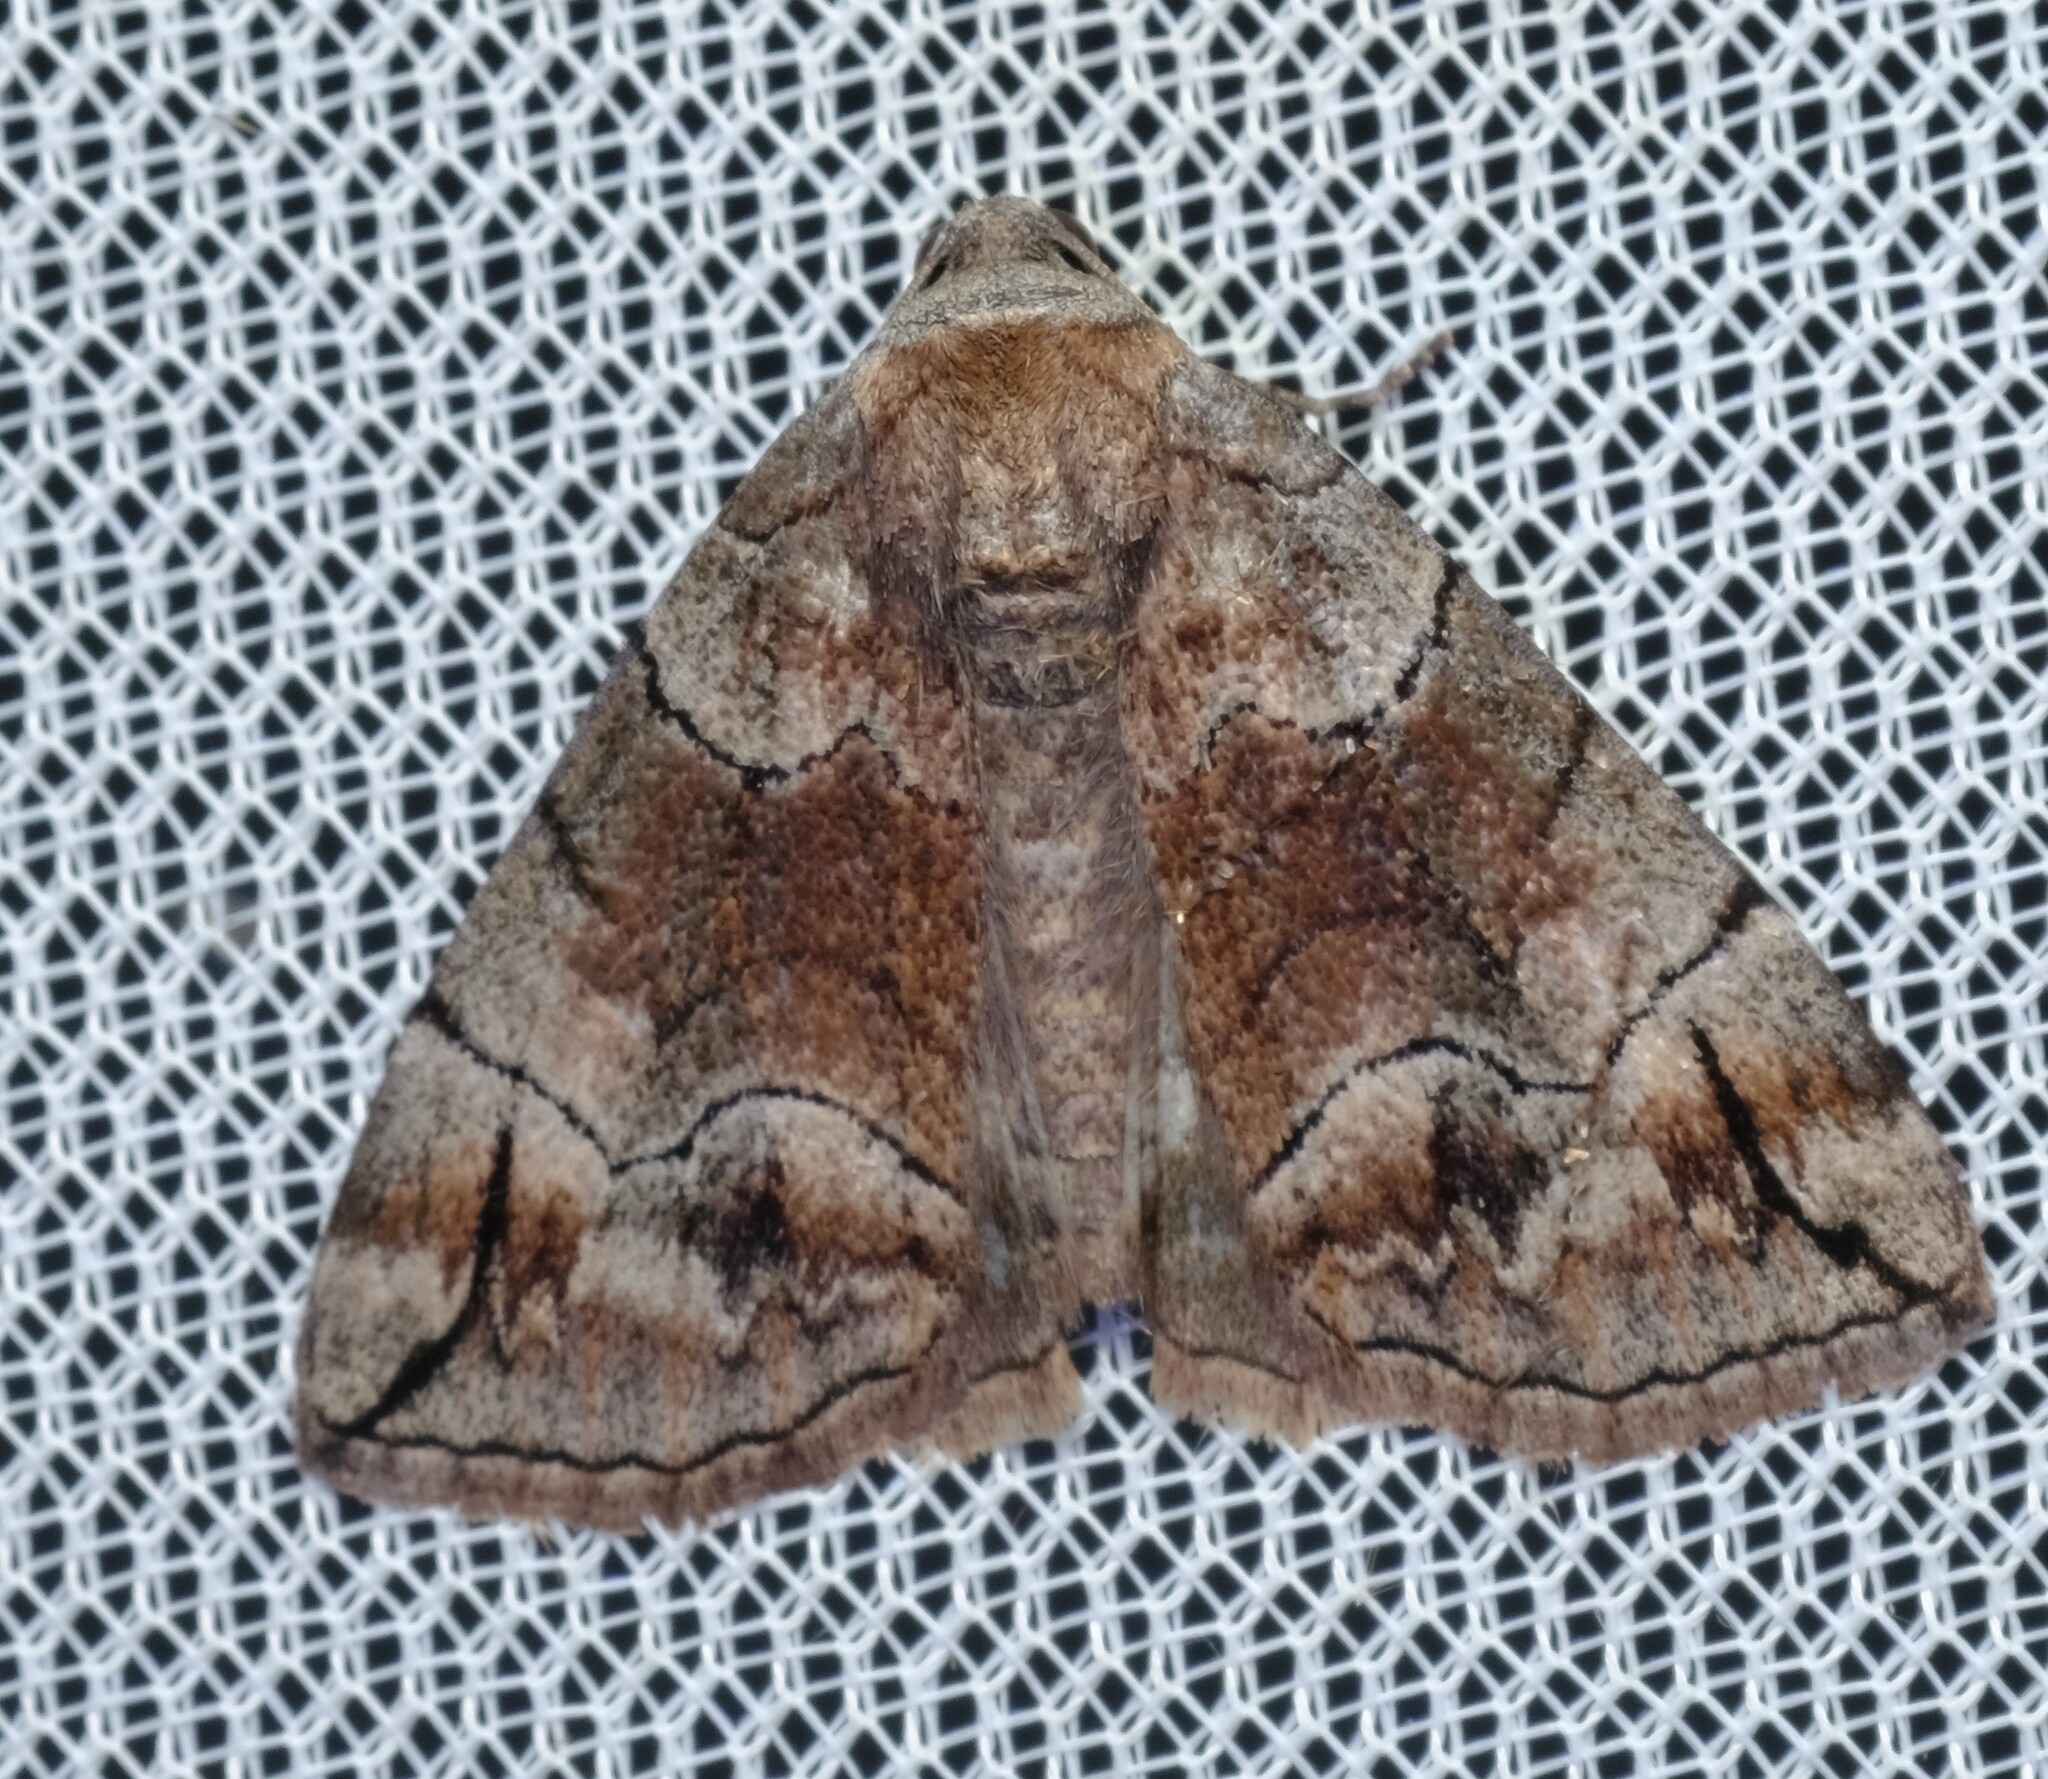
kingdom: Animalia
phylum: Arthropoda
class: Insecta
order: Lepidoptera
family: Geometridae
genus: Dysbatus
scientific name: Dysbatus stenodesma
